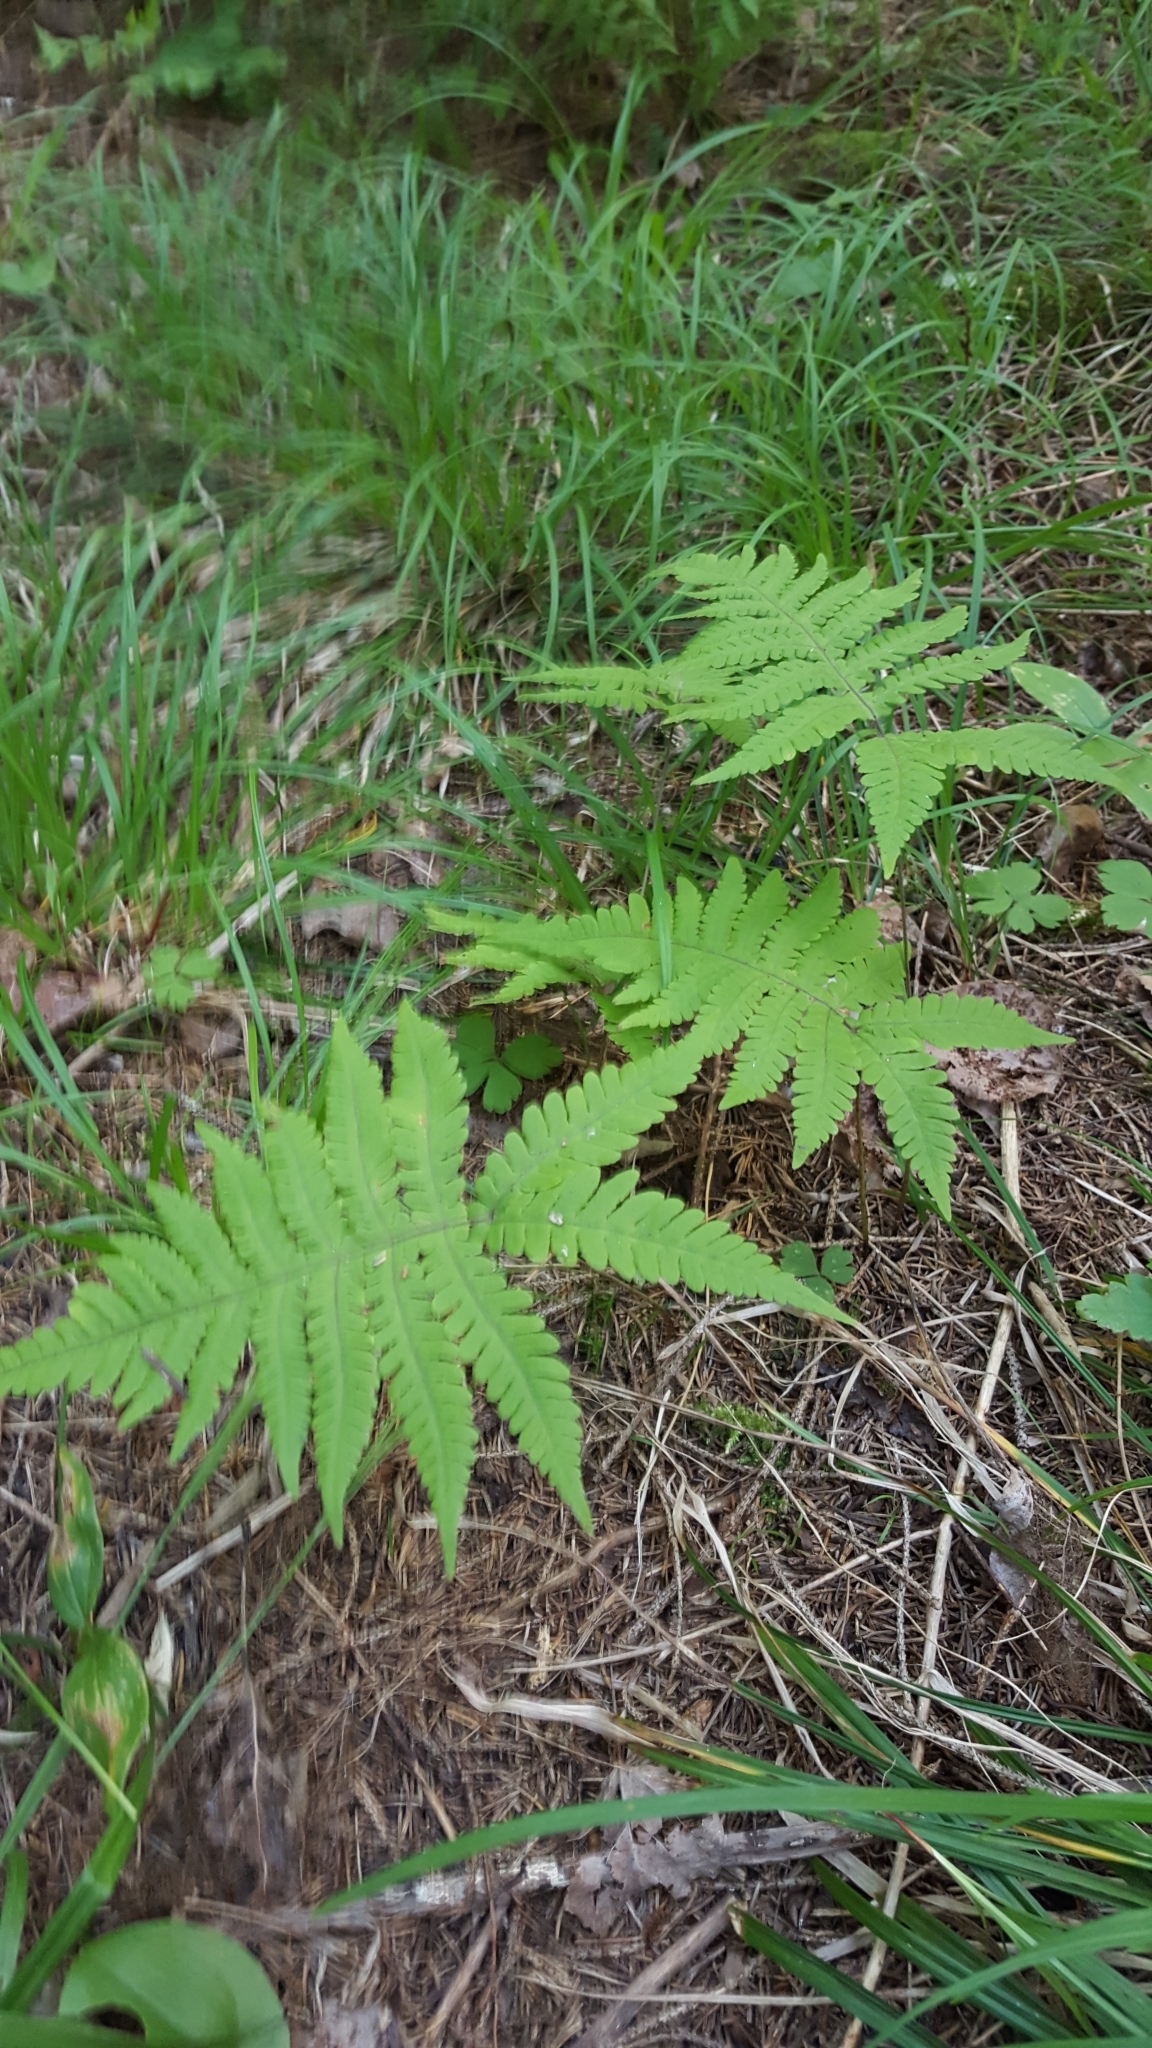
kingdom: Plantae
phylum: Tracheophyta
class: Polypodiopsida
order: Polypodiales
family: Thelypteridaceae
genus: Phegopteris
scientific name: Phegopteris connectilis
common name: Beech fern
